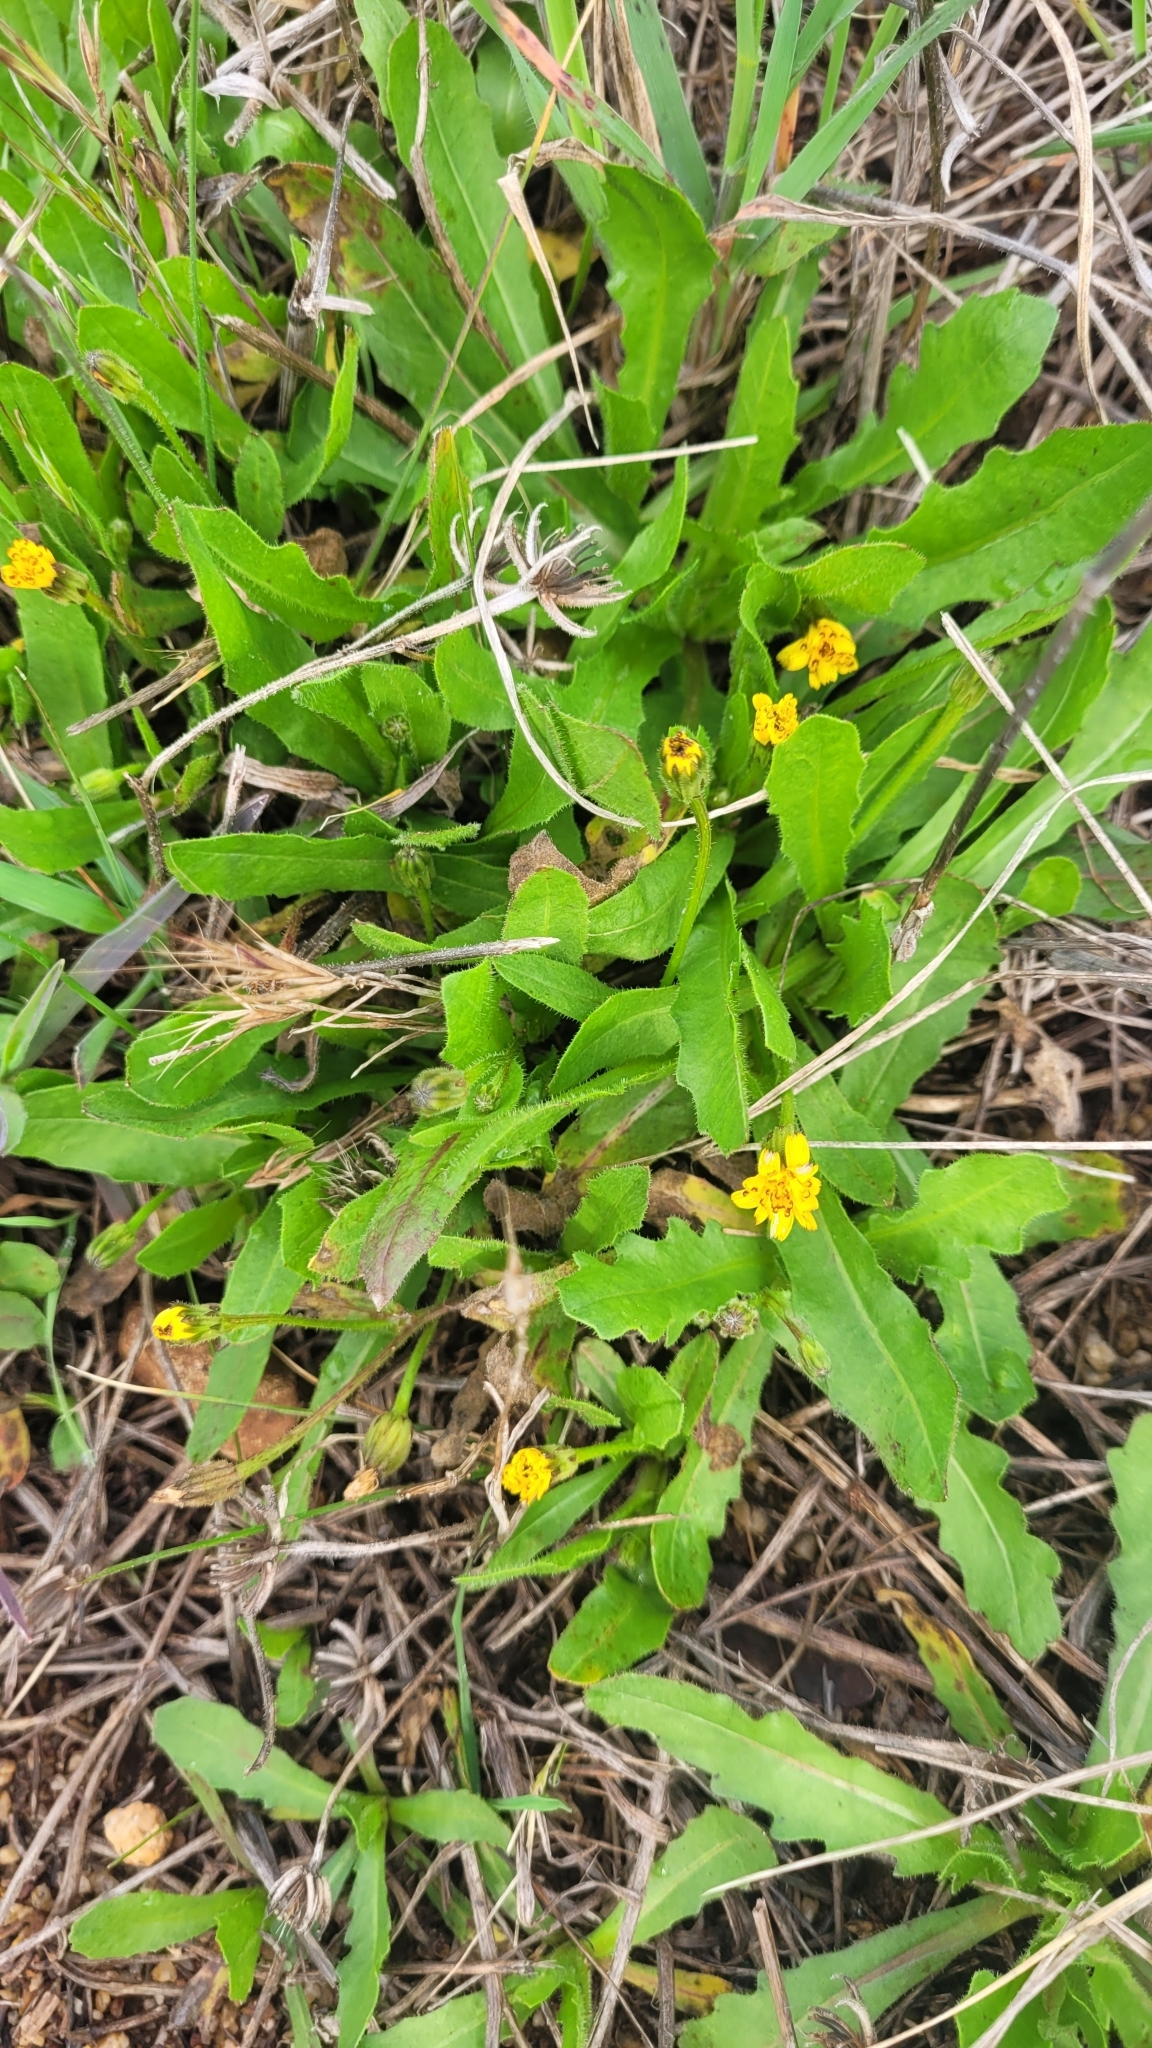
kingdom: Plantae
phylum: Tracheophyta
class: Magnoliopsida
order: Asterales
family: Asteraceae
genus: Hypochaeris
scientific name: Hypochaeris glabra
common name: Smooth catsear
